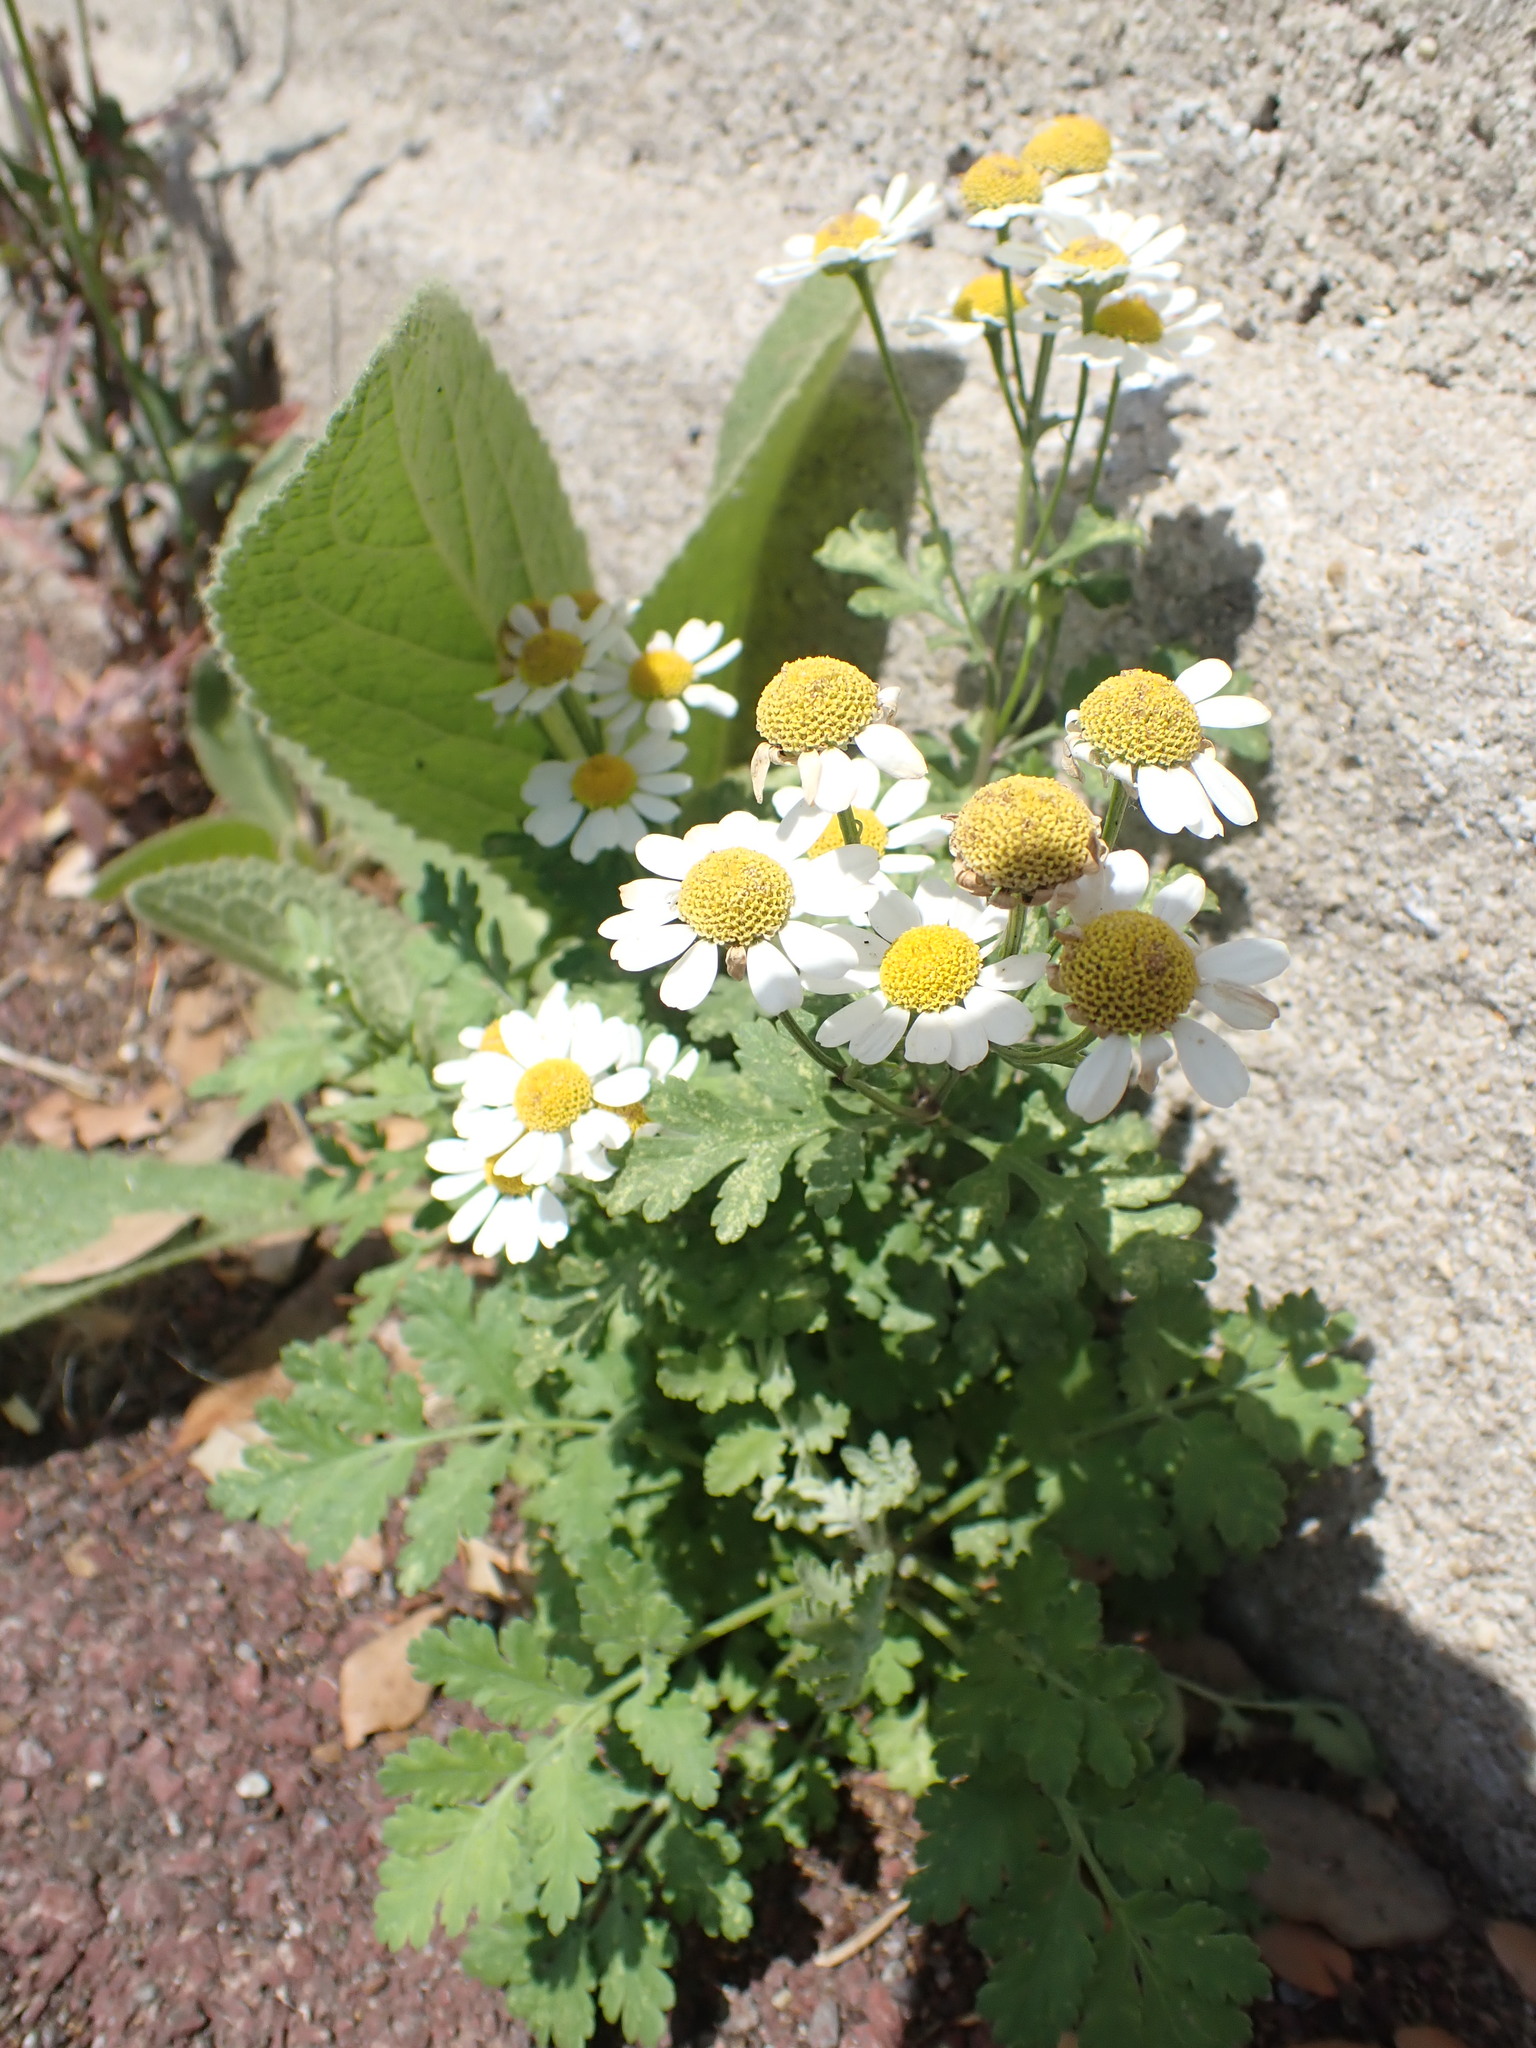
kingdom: Plantae
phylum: Tracheophyta
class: Magnoliopsida
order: Asterales
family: Asteraceae
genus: Tanacetum
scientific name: Tanacetum parthenium
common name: Feverfew
